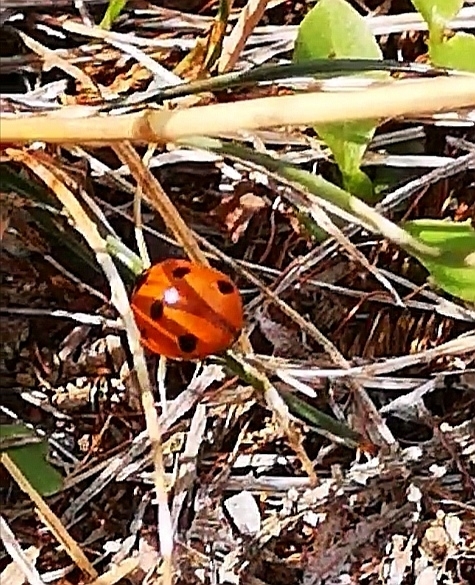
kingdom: Animalia
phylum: Arthropoda
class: Insecta
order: Coleoptera
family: Coccinellidae
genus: Coccinella
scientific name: Coccinella septempunctata
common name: Sevenspotted lady beetle
